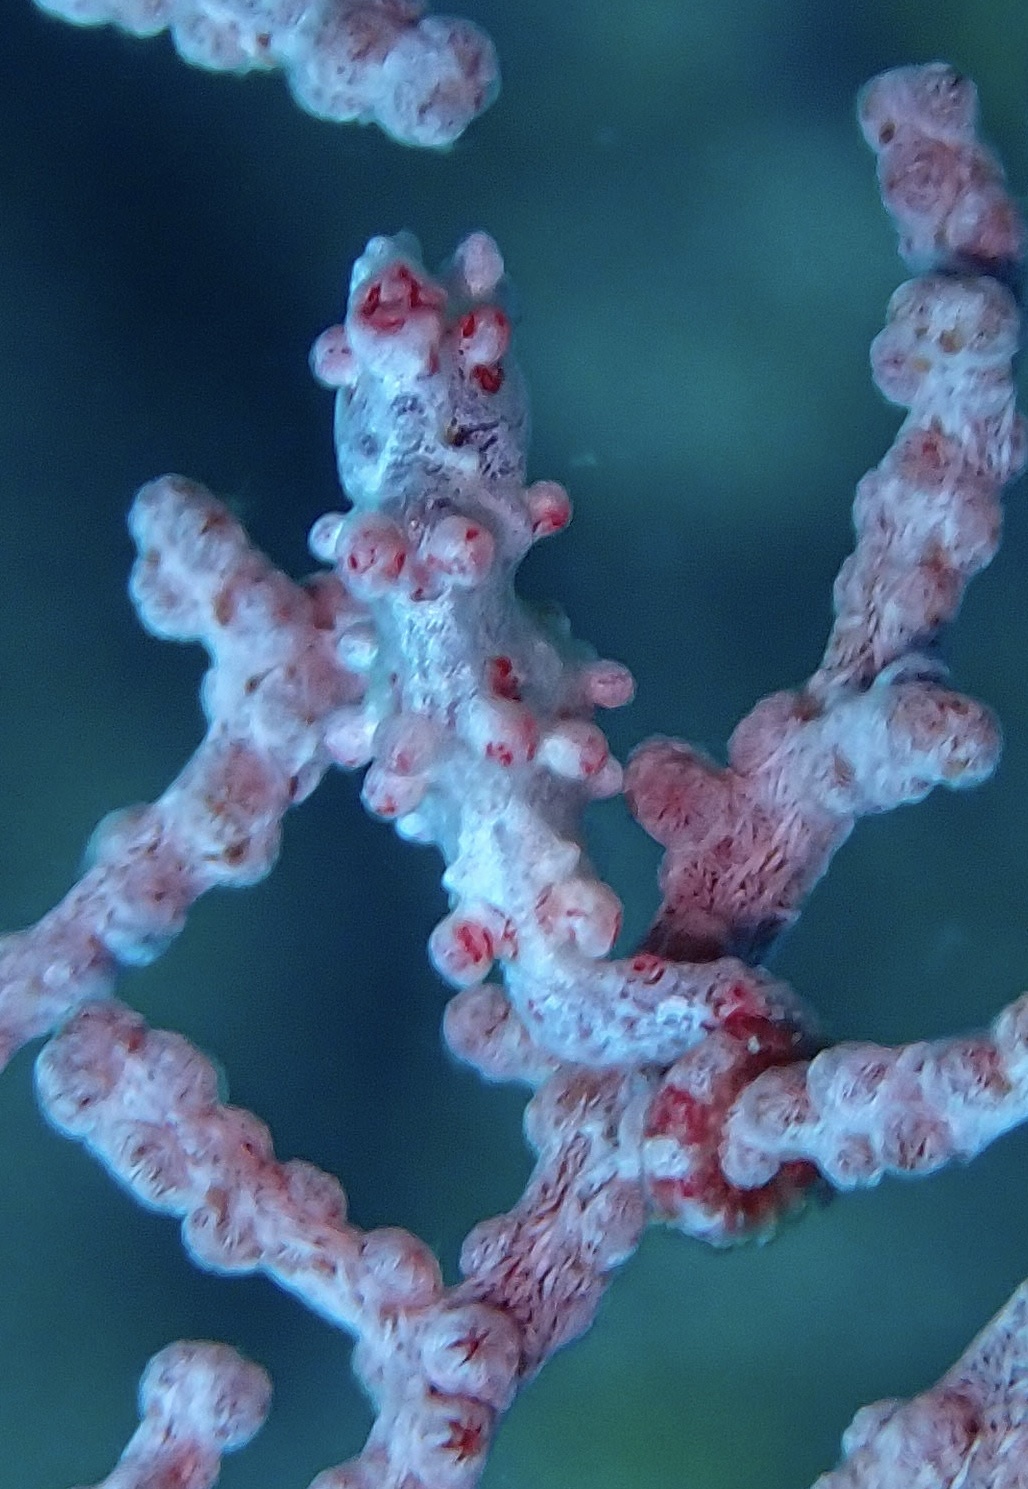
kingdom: Animalia
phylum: Chordata
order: Syngnathiformes
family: Syngnathidae
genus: Hippocampus
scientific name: Hippocampus bargibanti
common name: Bargibant's seahorse
